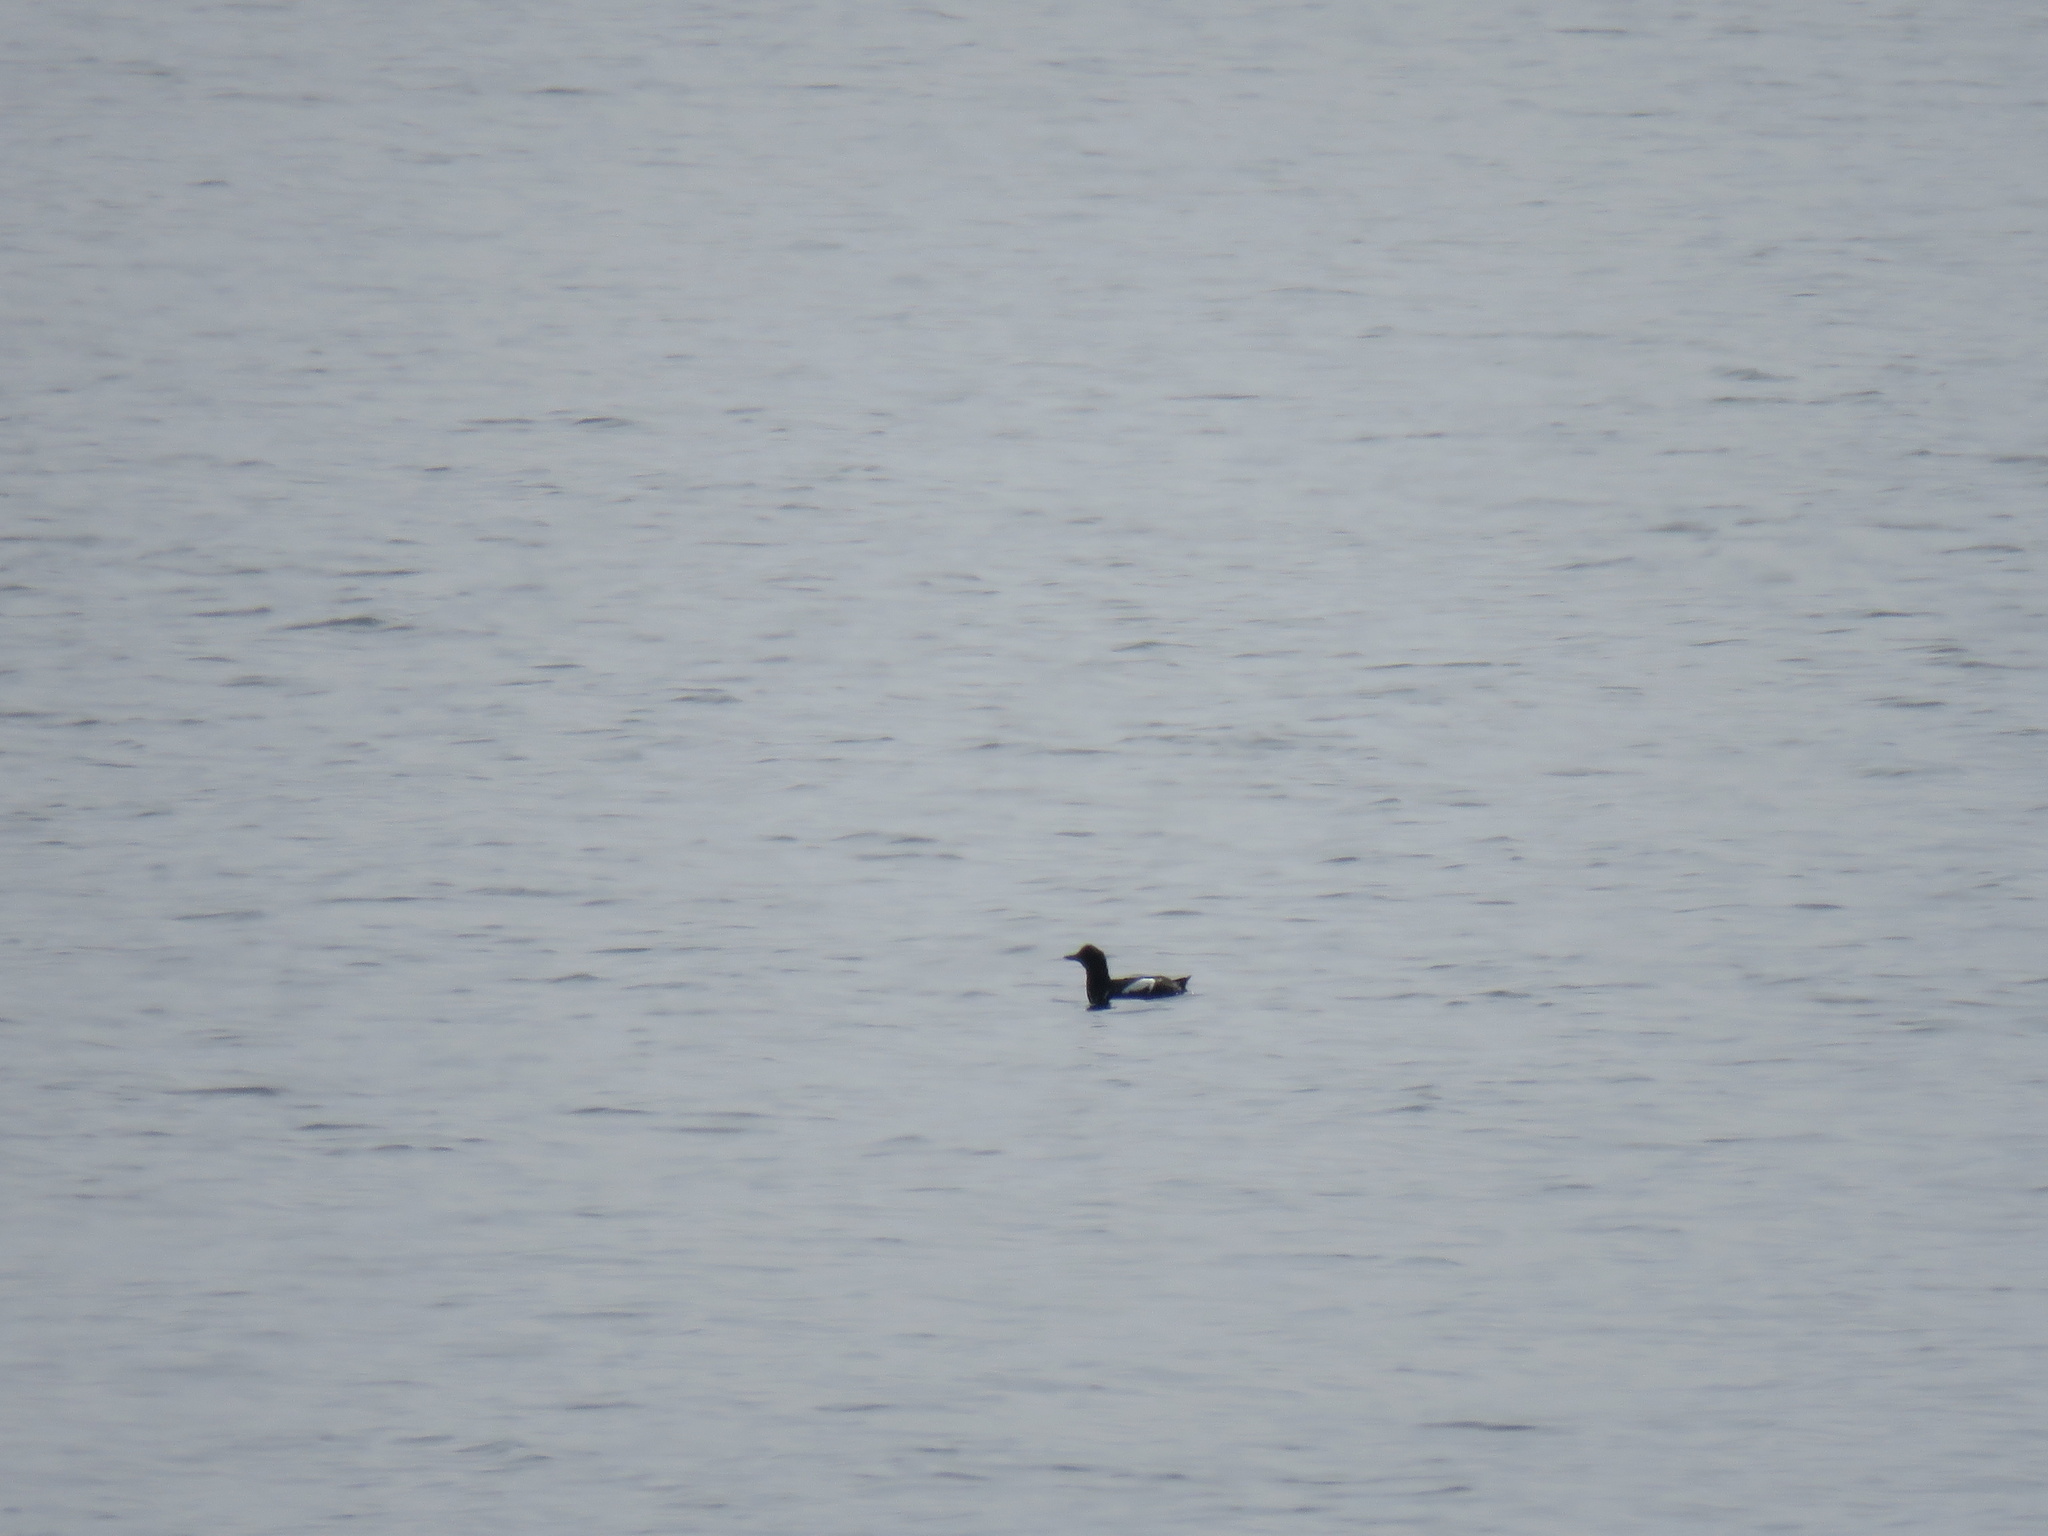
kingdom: Animalia
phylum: Chordata
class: Aves
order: Charadriiformes
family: Alcidae
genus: Cepphus
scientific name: Cepphus columba
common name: Pigeon guillemot
